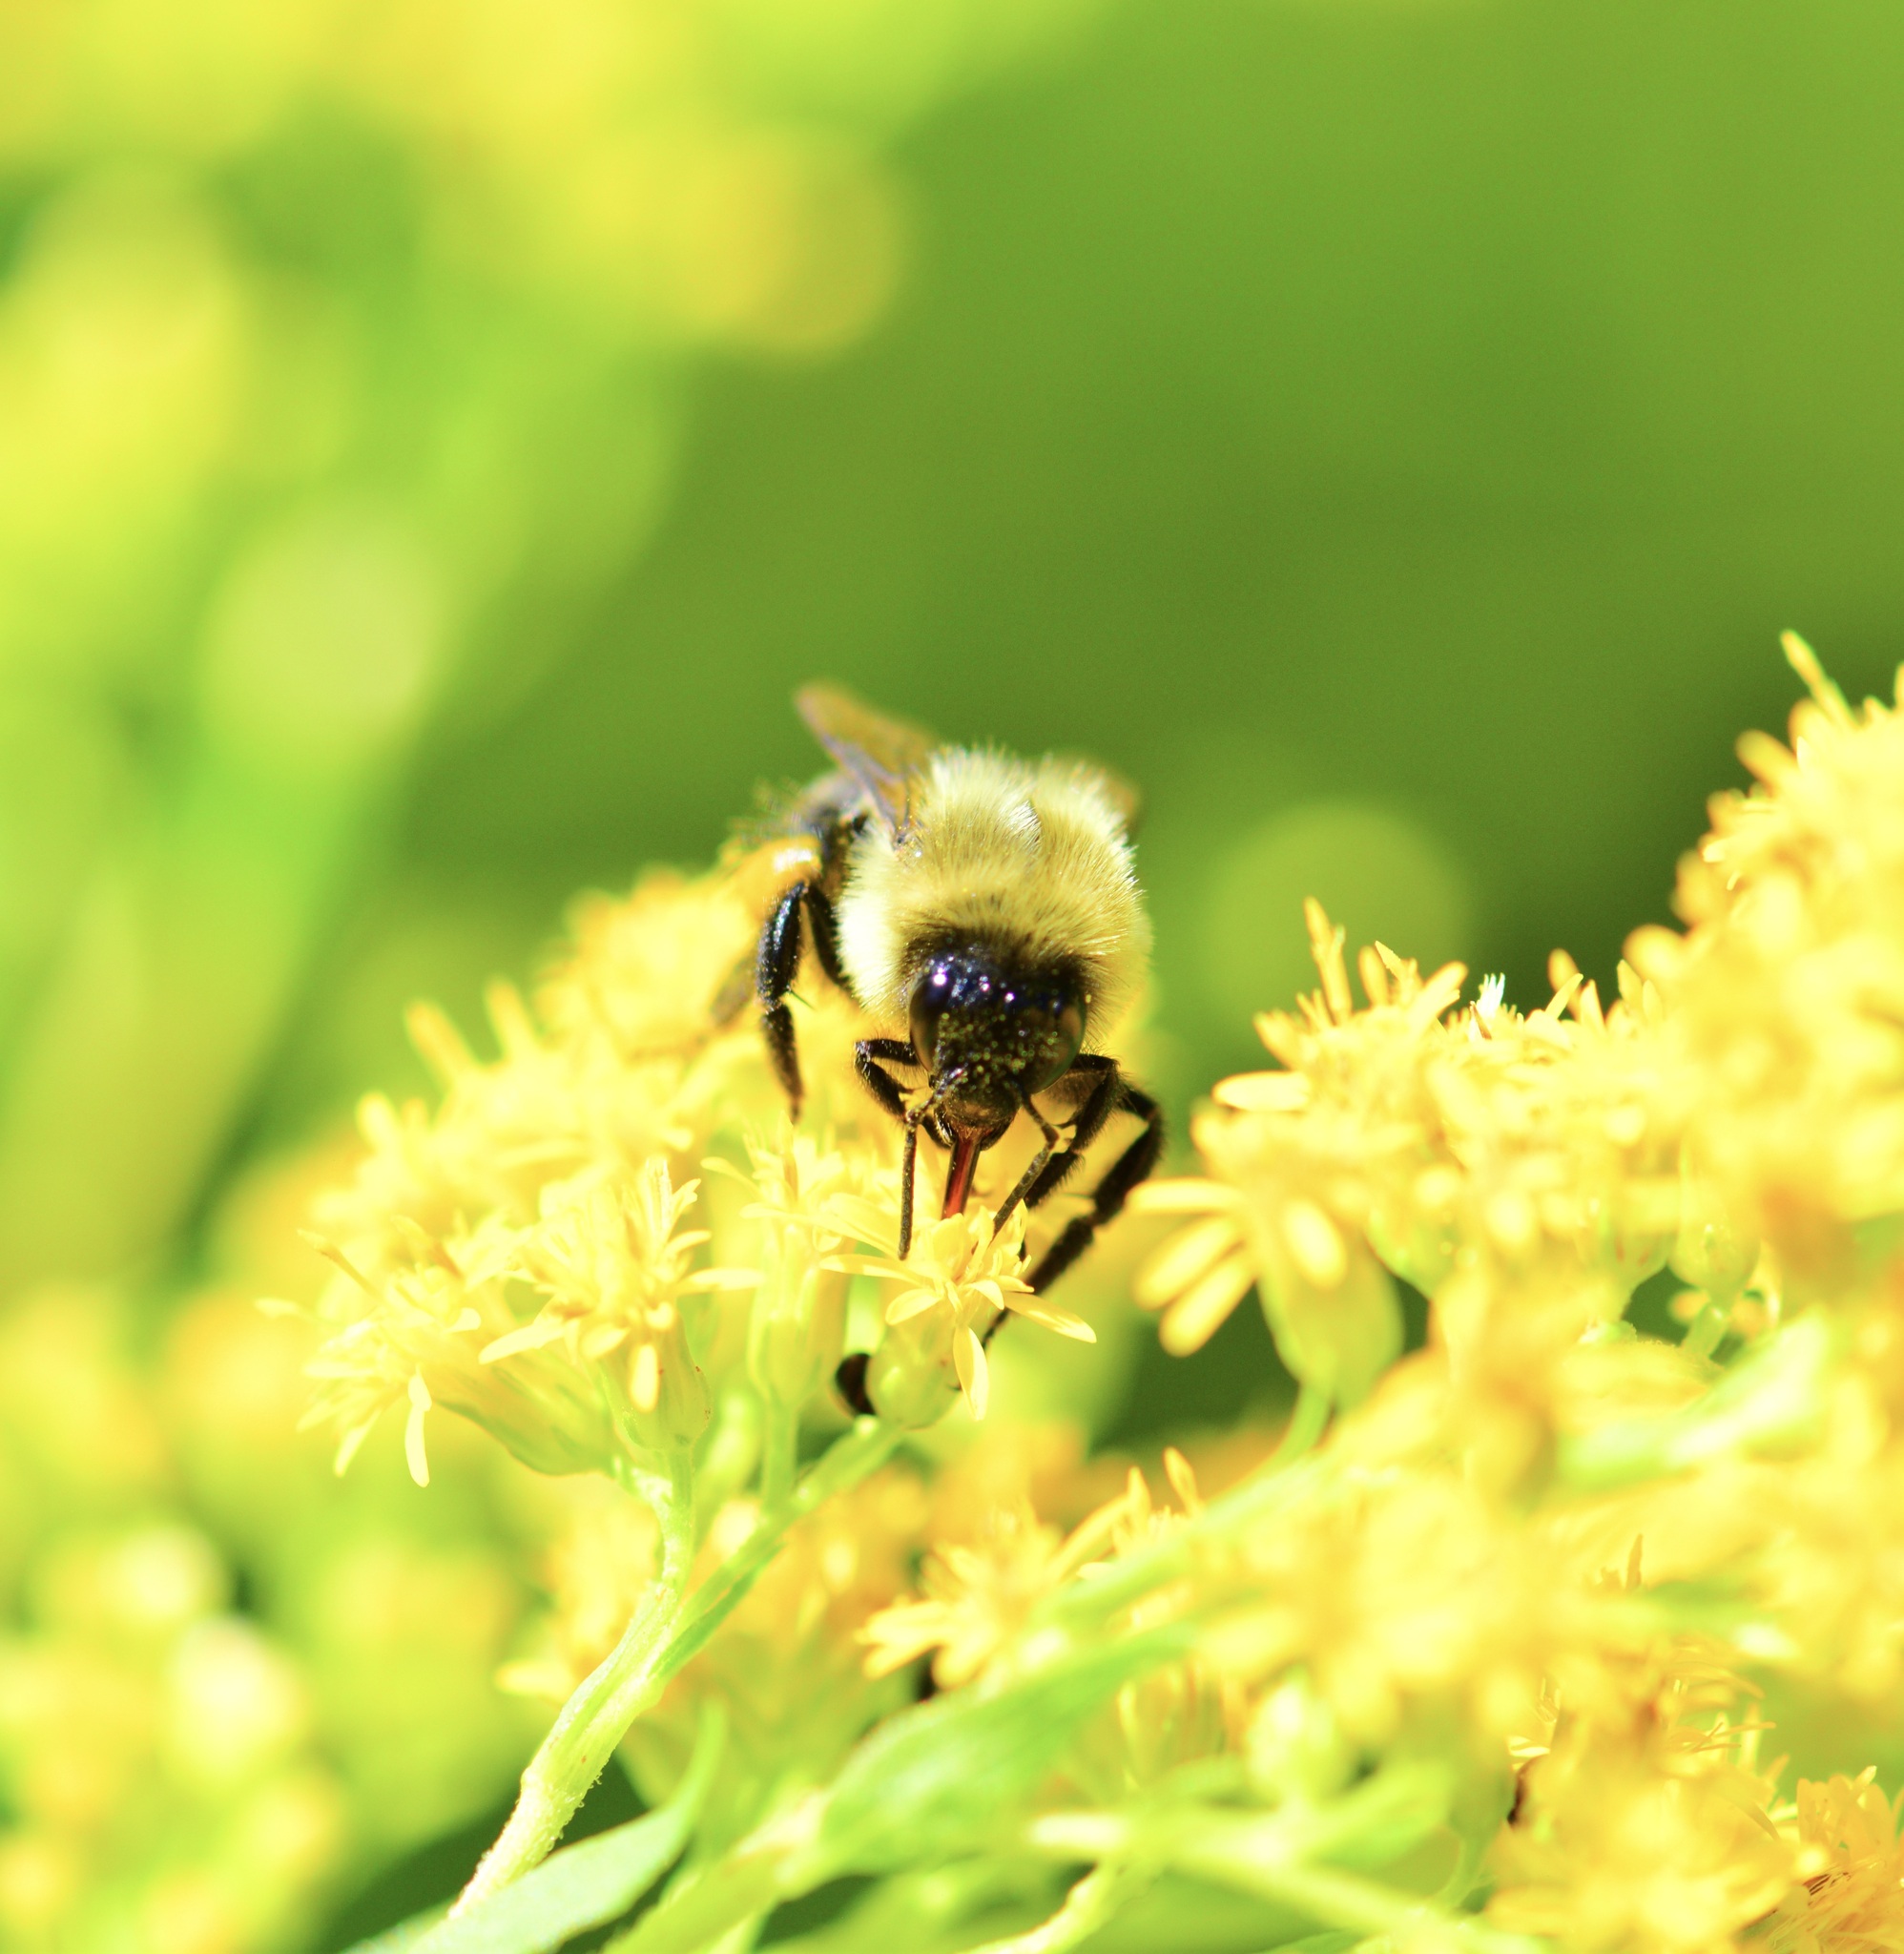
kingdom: Animalia
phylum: Arthropoda
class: Insecta
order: Hymenoptera
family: Apidae
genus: Bombus
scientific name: Bombus impatiens
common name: Common eastern bumble bee
